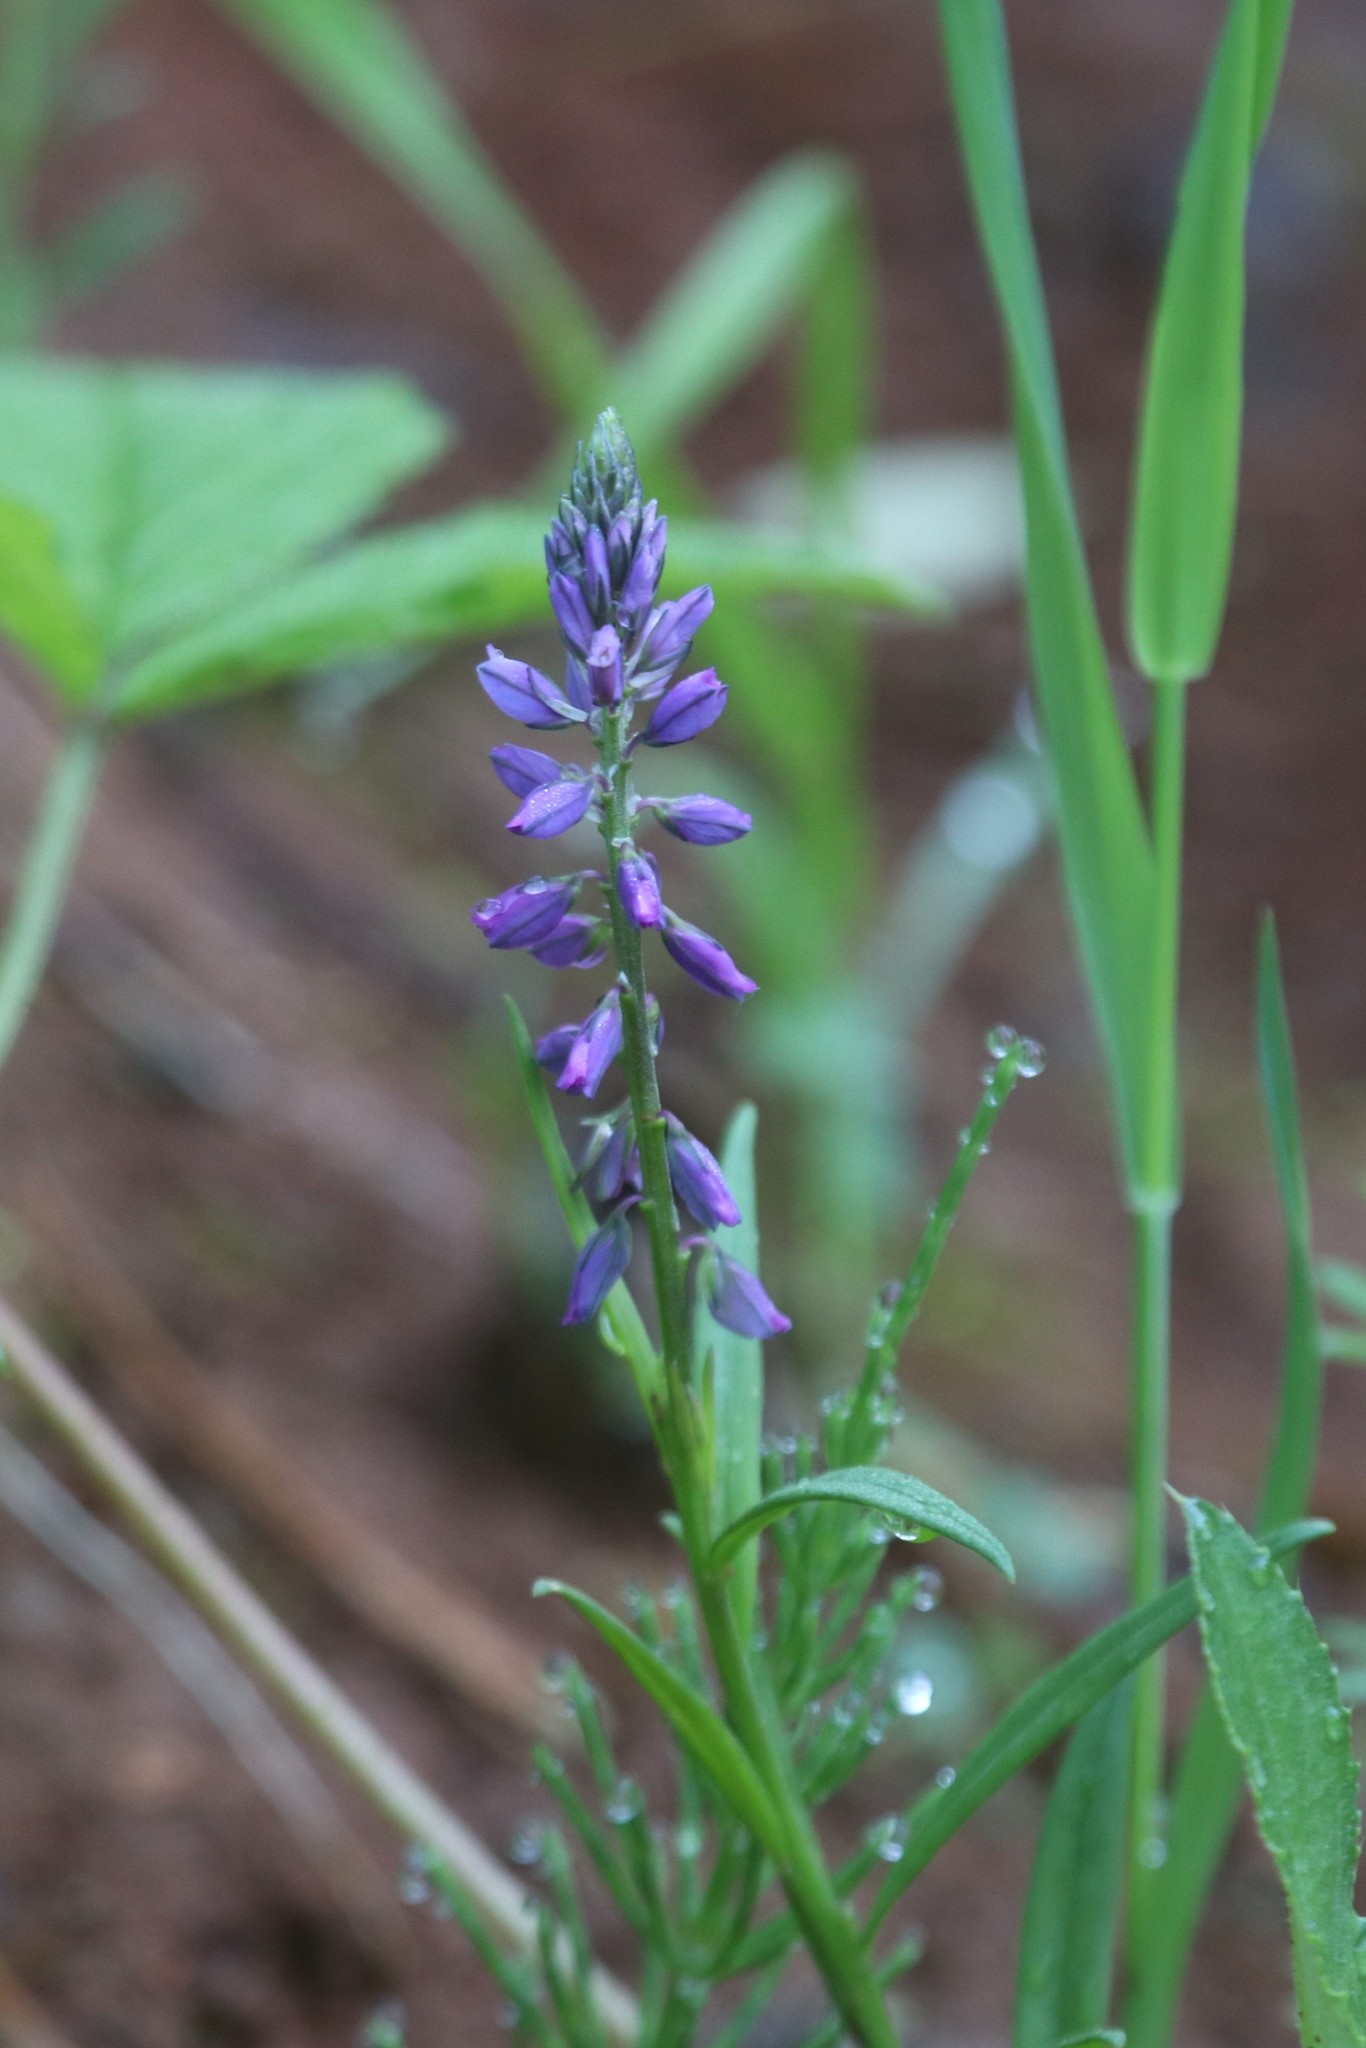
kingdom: Plantae
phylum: Tracheophyta
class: Magnoliopsida
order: Fabales
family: Polygalaceae
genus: Polygala
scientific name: Polygala comosa
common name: Tufted milkwort
